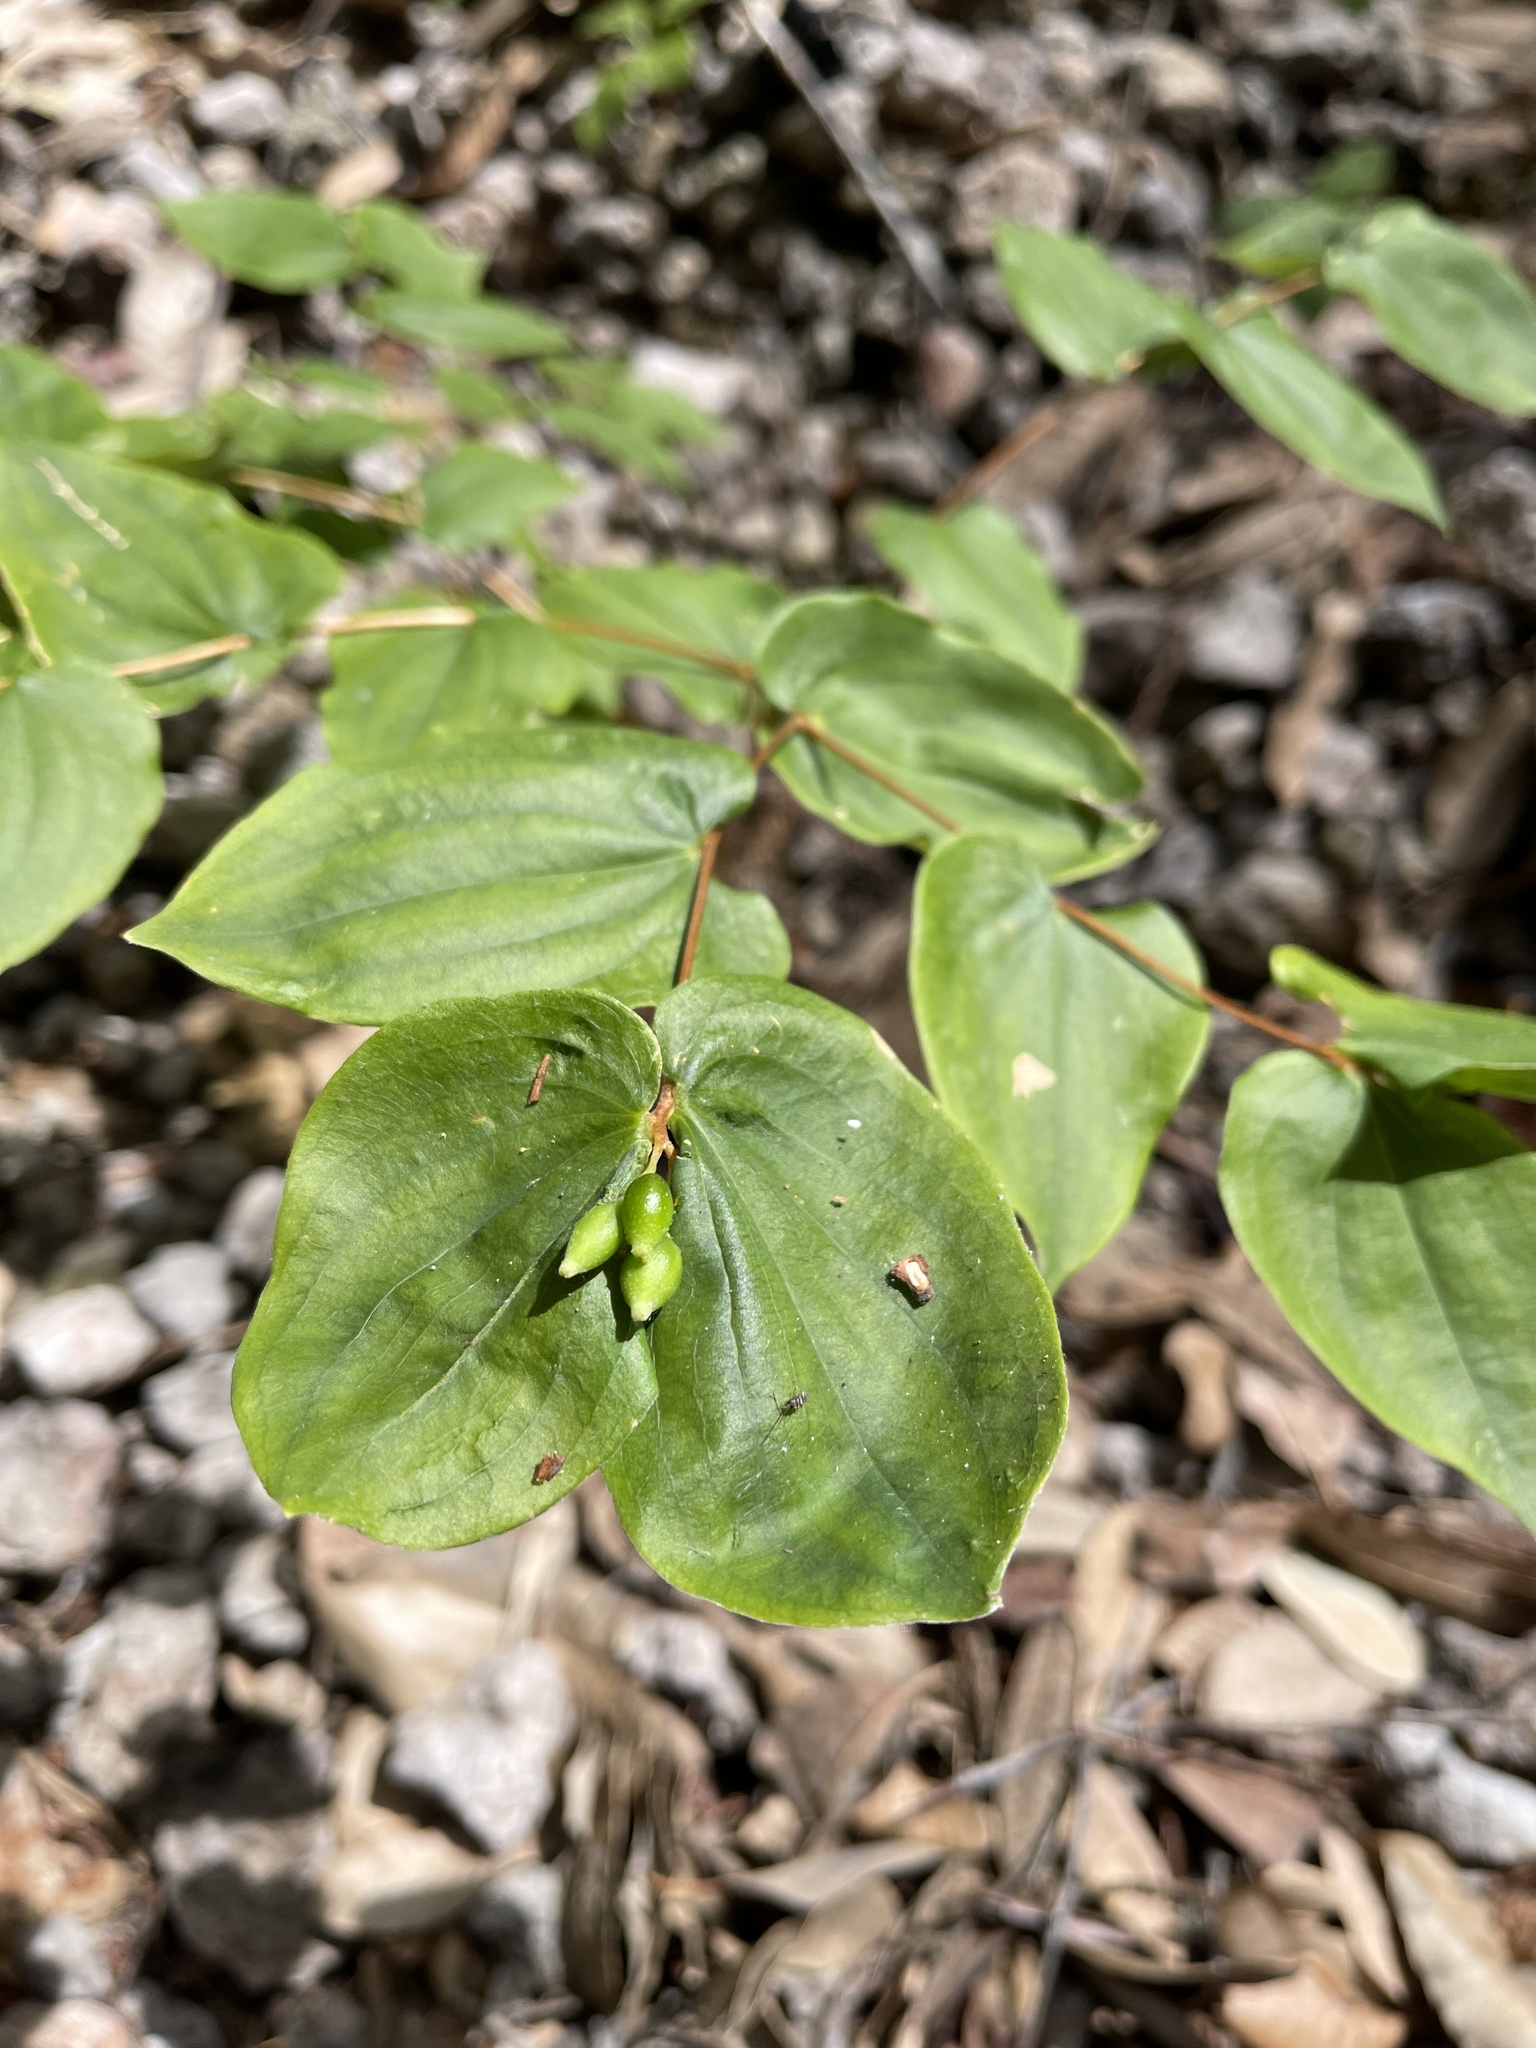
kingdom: Plantae
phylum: Tracheophyta
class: Liliopsida
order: Liliales
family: Liliaceae
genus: Prosartes
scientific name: Prosartes hookeri
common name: Fairy-bells
